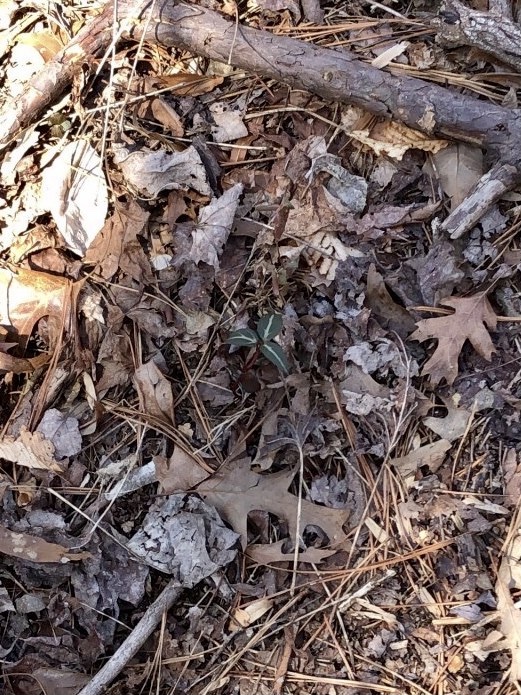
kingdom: Plantae
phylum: Tracheophyta
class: Magnoliopsida
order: Ericales
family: Ericaceae
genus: Chimaphila
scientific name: Chimaphila maculata
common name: Spotted pipsissewa
